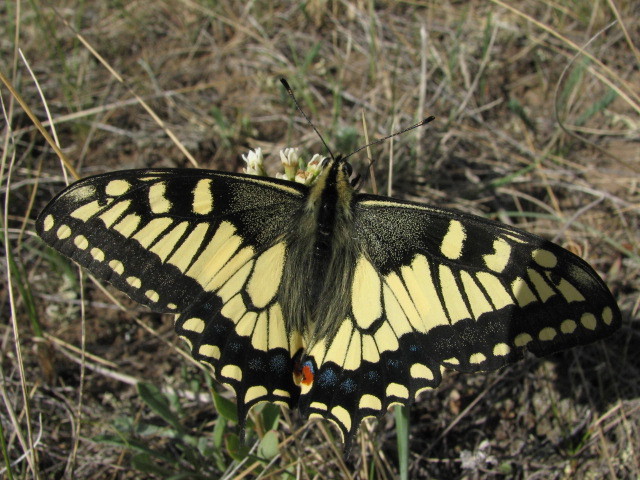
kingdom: Animalia
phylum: Arthropoda
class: Insecta
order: Lepidoptera
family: Papilionidae
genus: Papilio
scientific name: Papilio machaon
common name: Swallowtail
